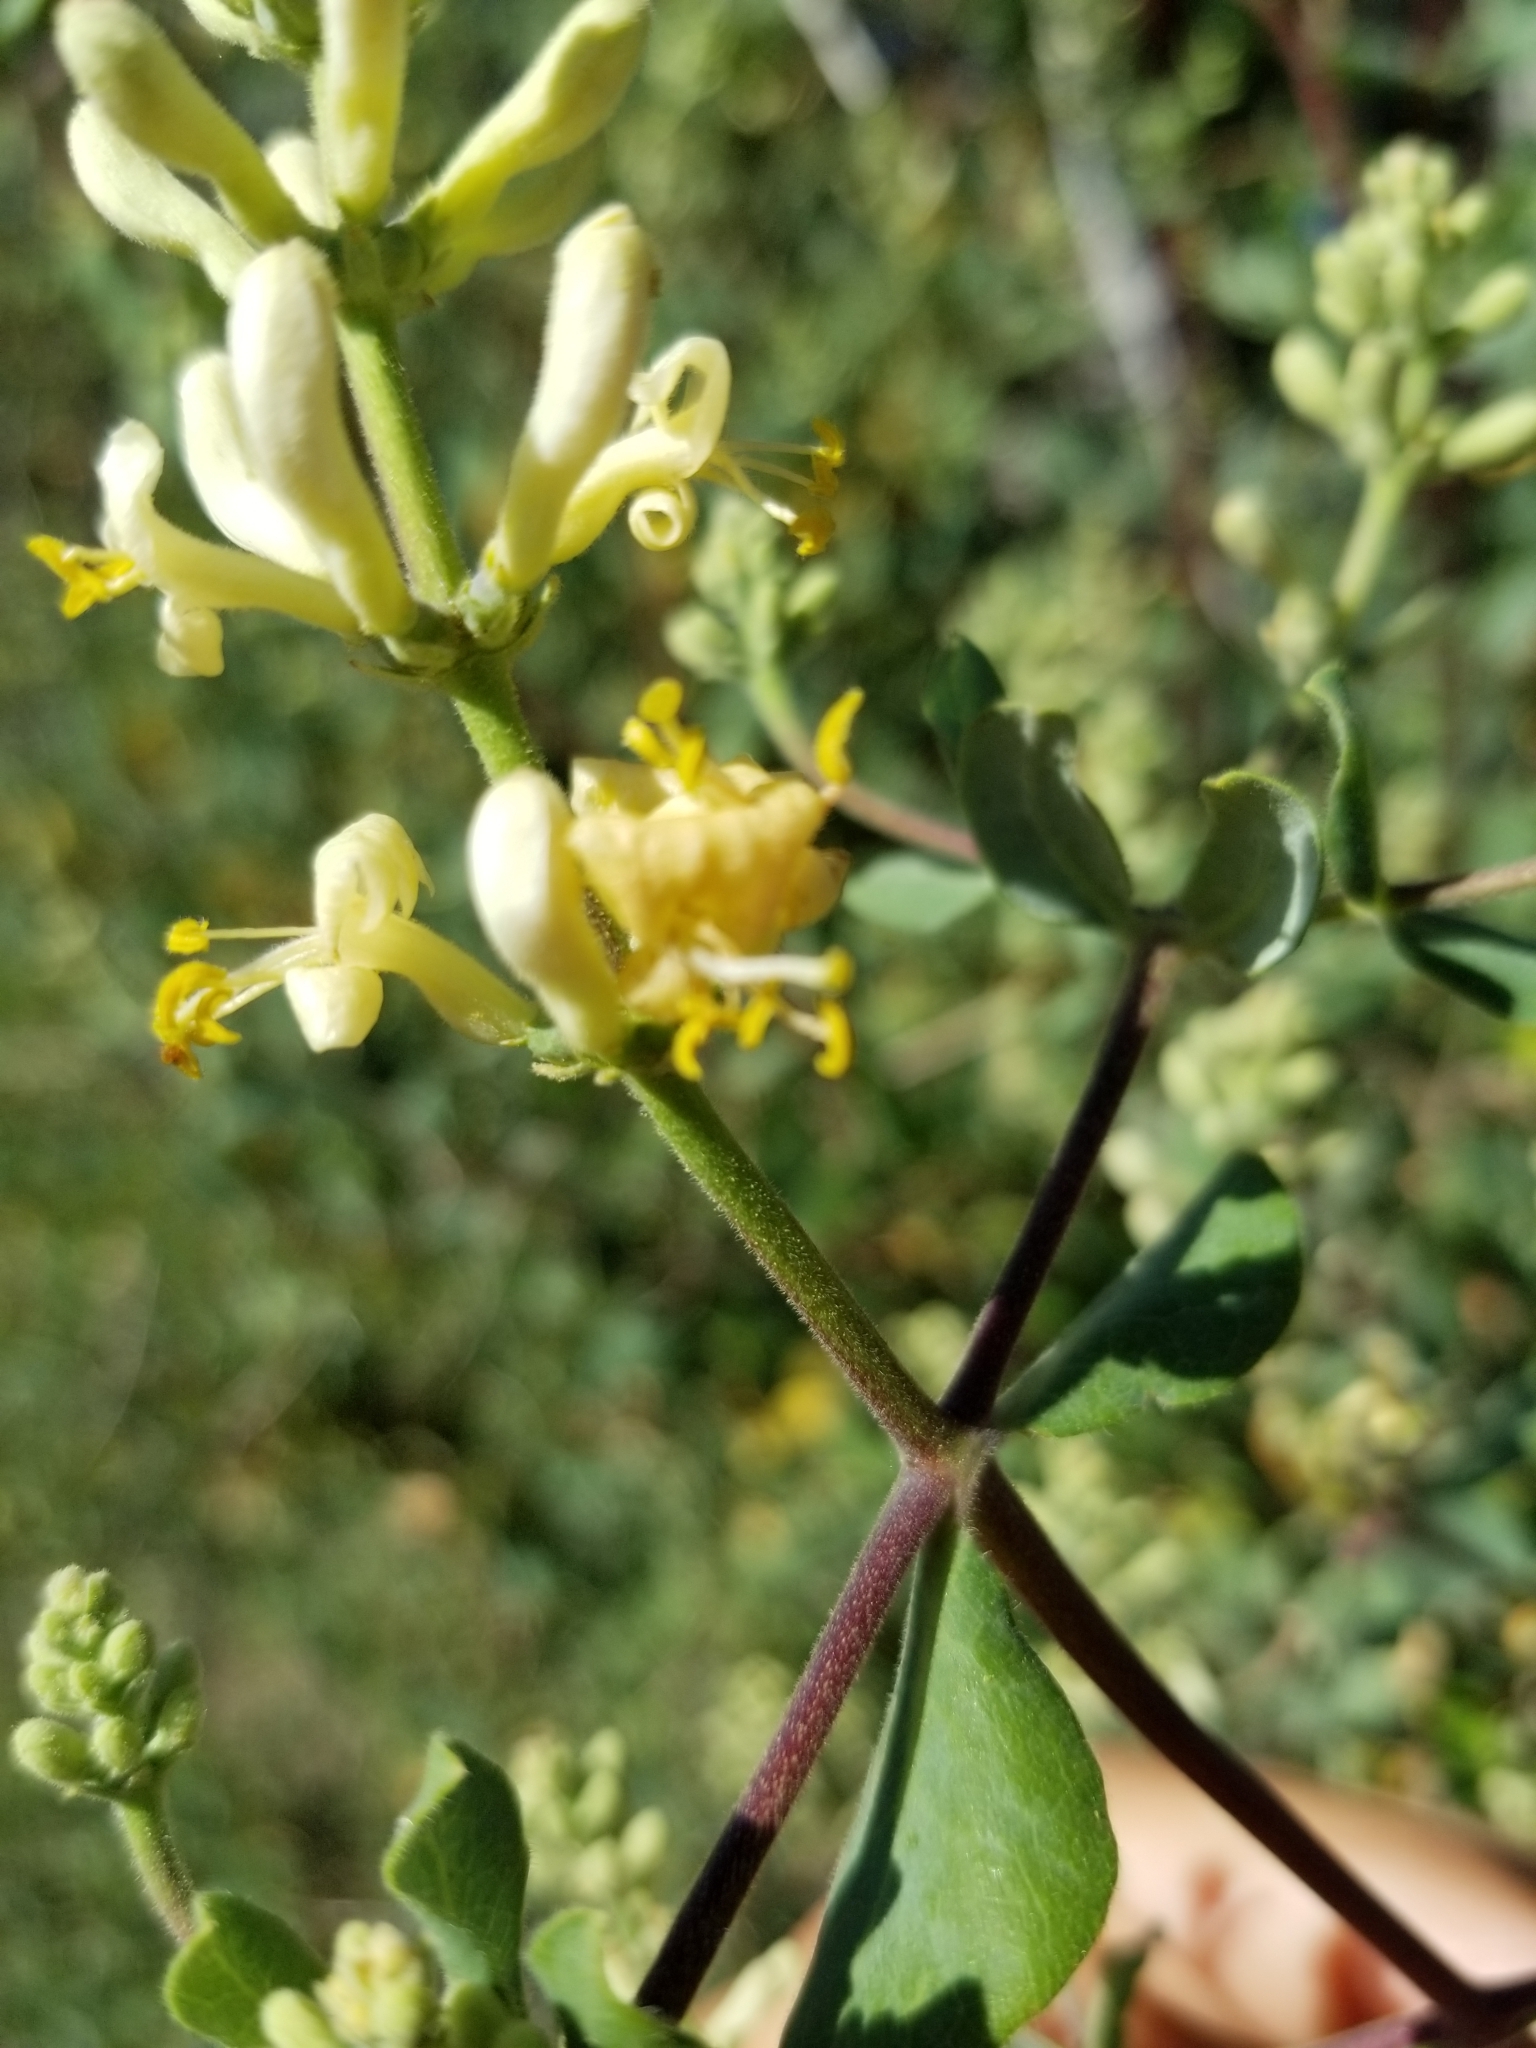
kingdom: Plantae
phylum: Tracheophyta
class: Magnoliopsida
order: Dipsacales
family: Caprifoliaceae
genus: Lonicera
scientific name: Lonicera subspicata
